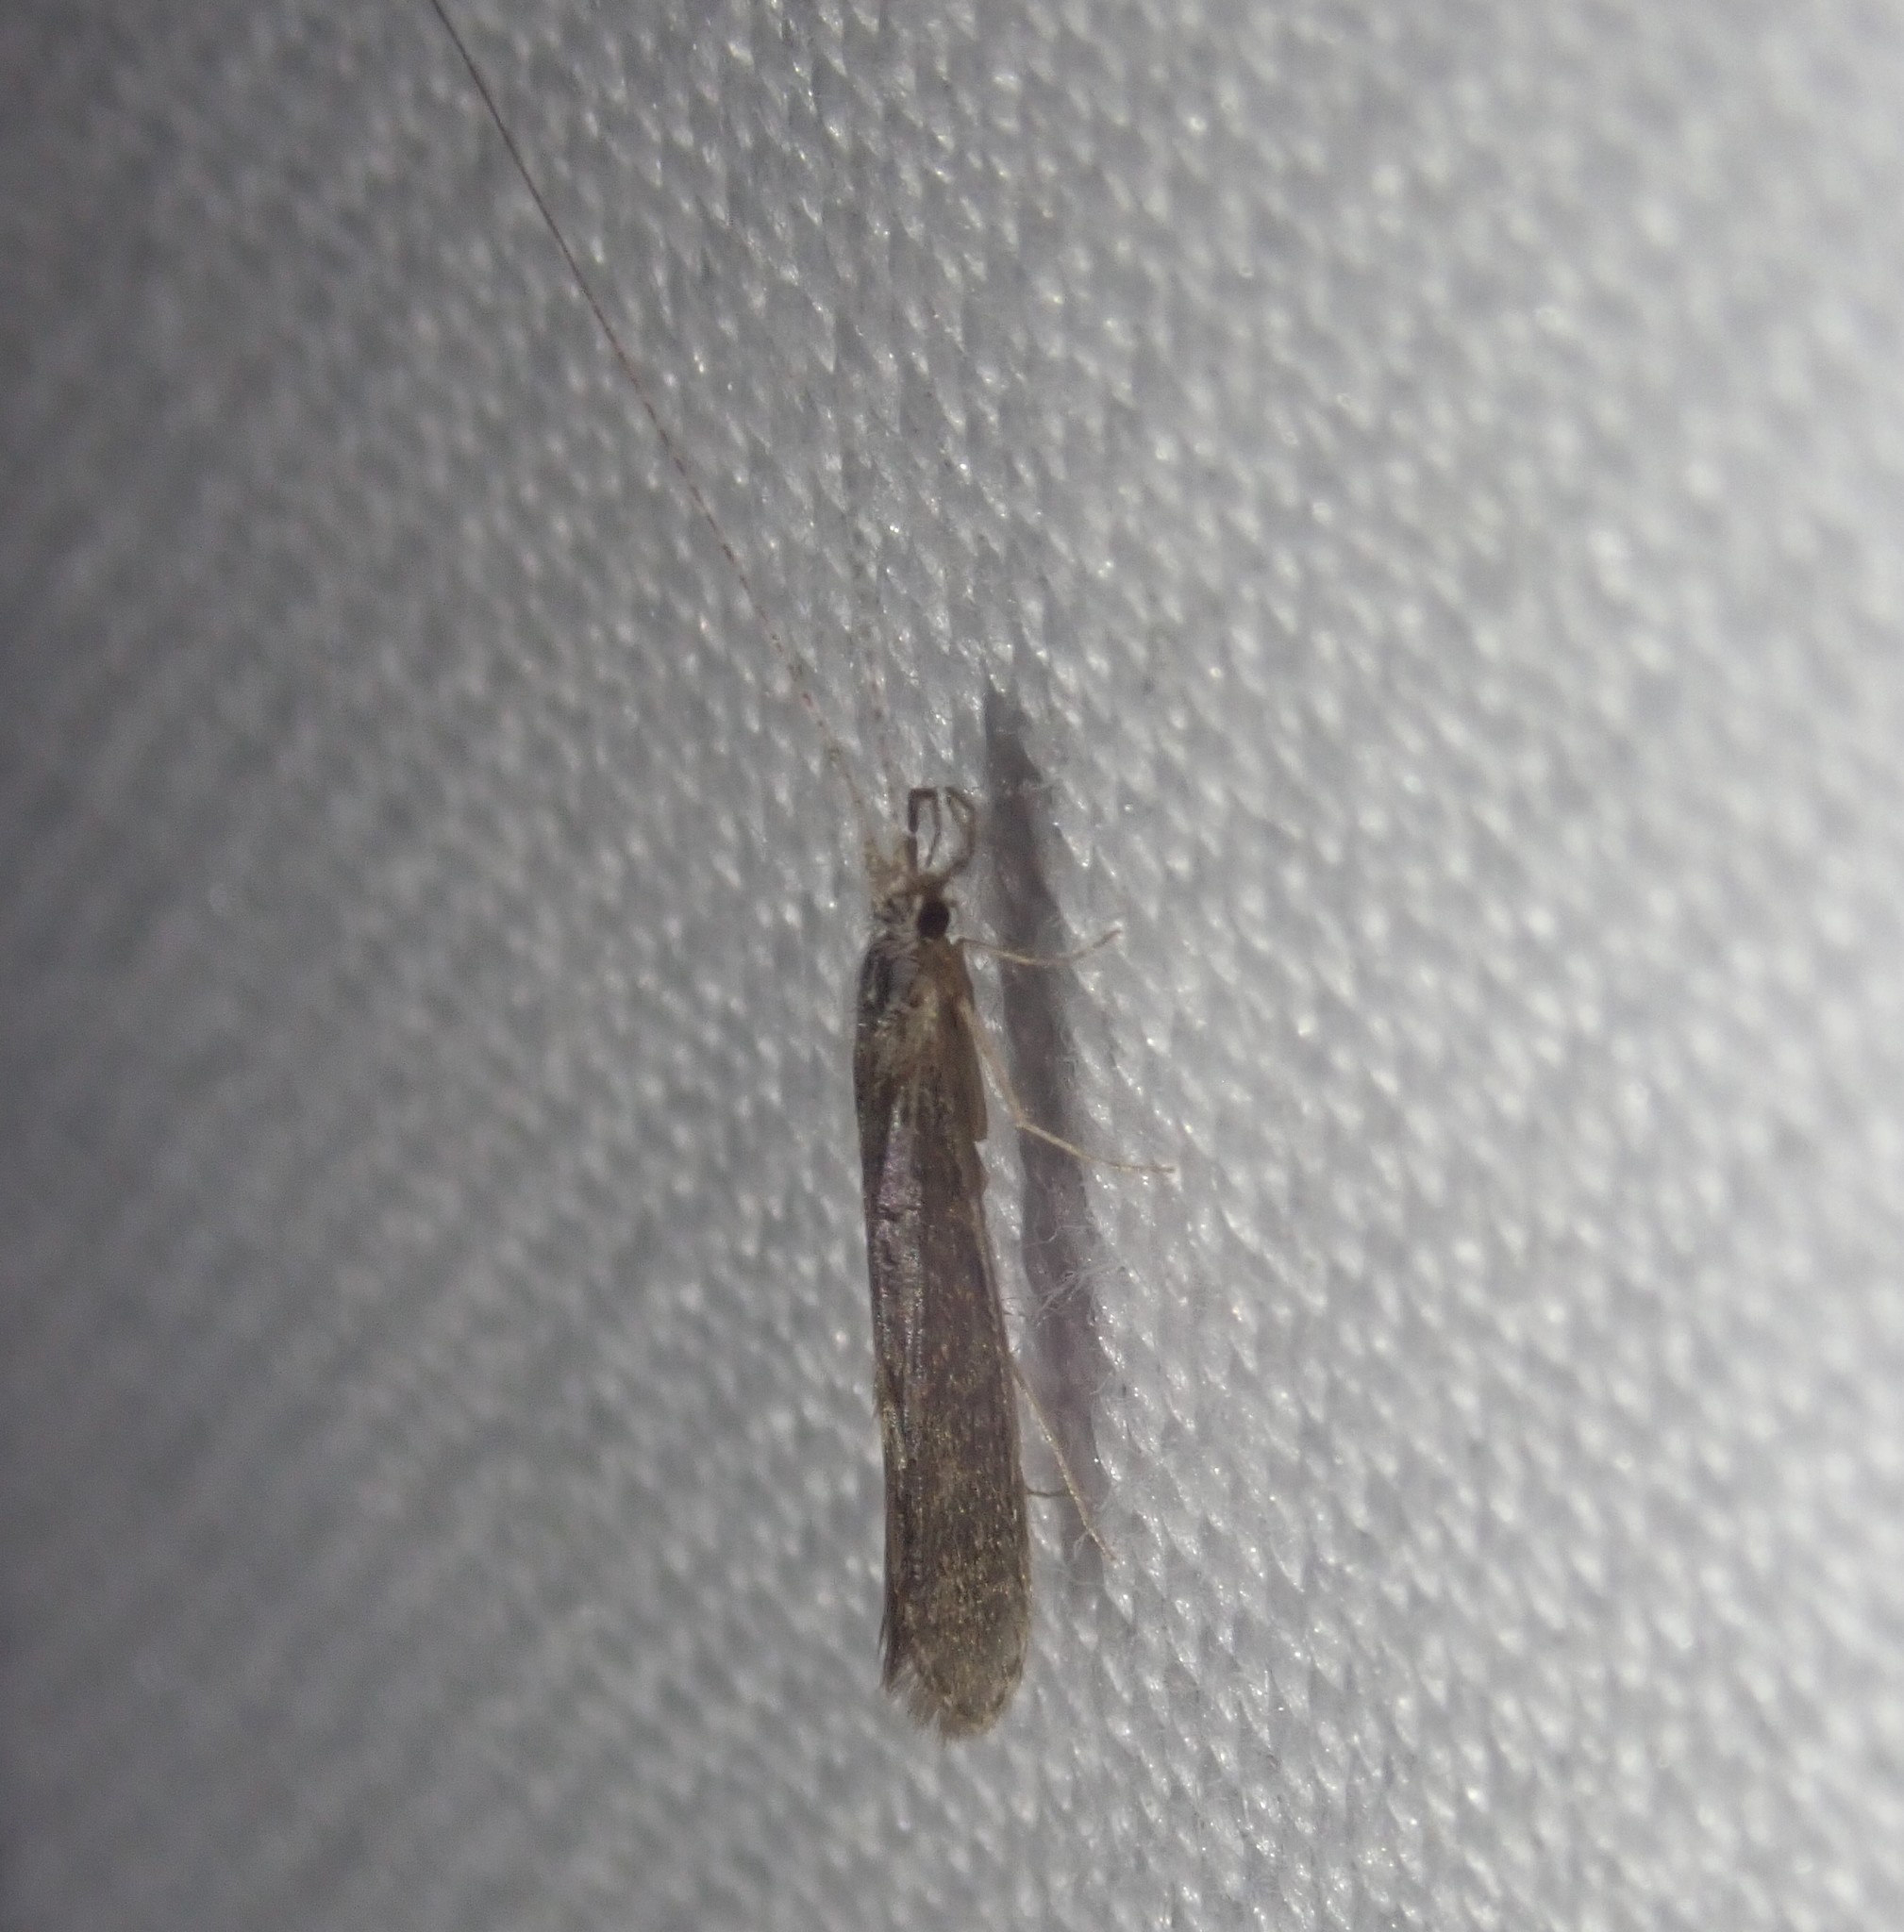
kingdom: Animalia
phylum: Arthropoda
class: Insecta
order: Trichoptera
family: Leptoceridae
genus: Leptocerus
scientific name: Leptocerus tineiformis
